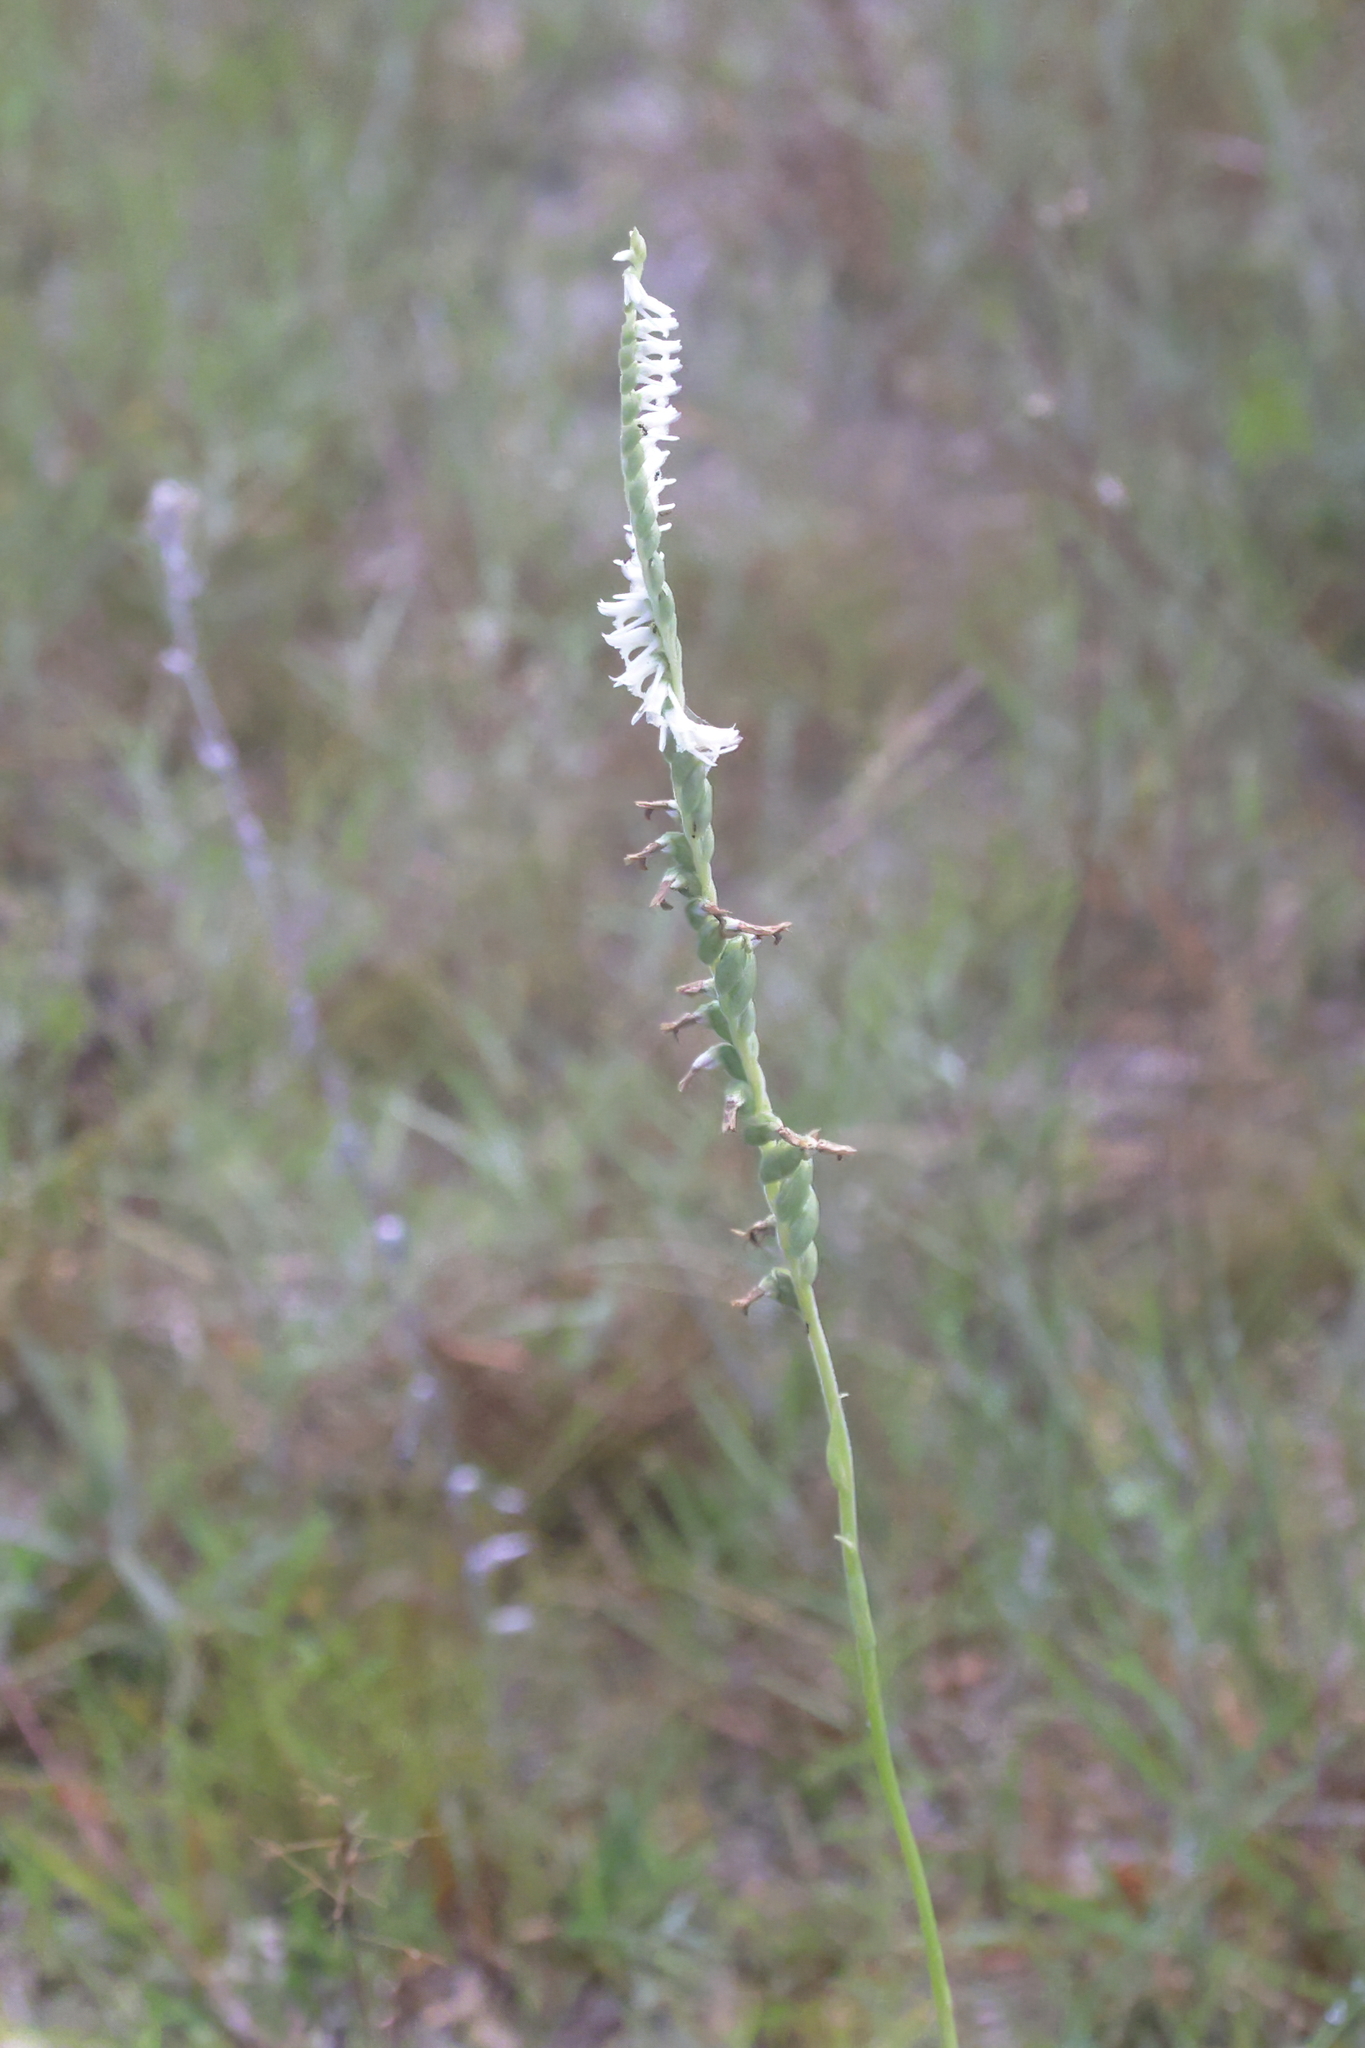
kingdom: Plantae
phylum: Tracheophyta
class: Liliopsida
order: Asparagales
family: Orchidaceae
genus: Spiranthes
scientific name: Spiranthes vernalis
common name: Spring ladies'-tresses
